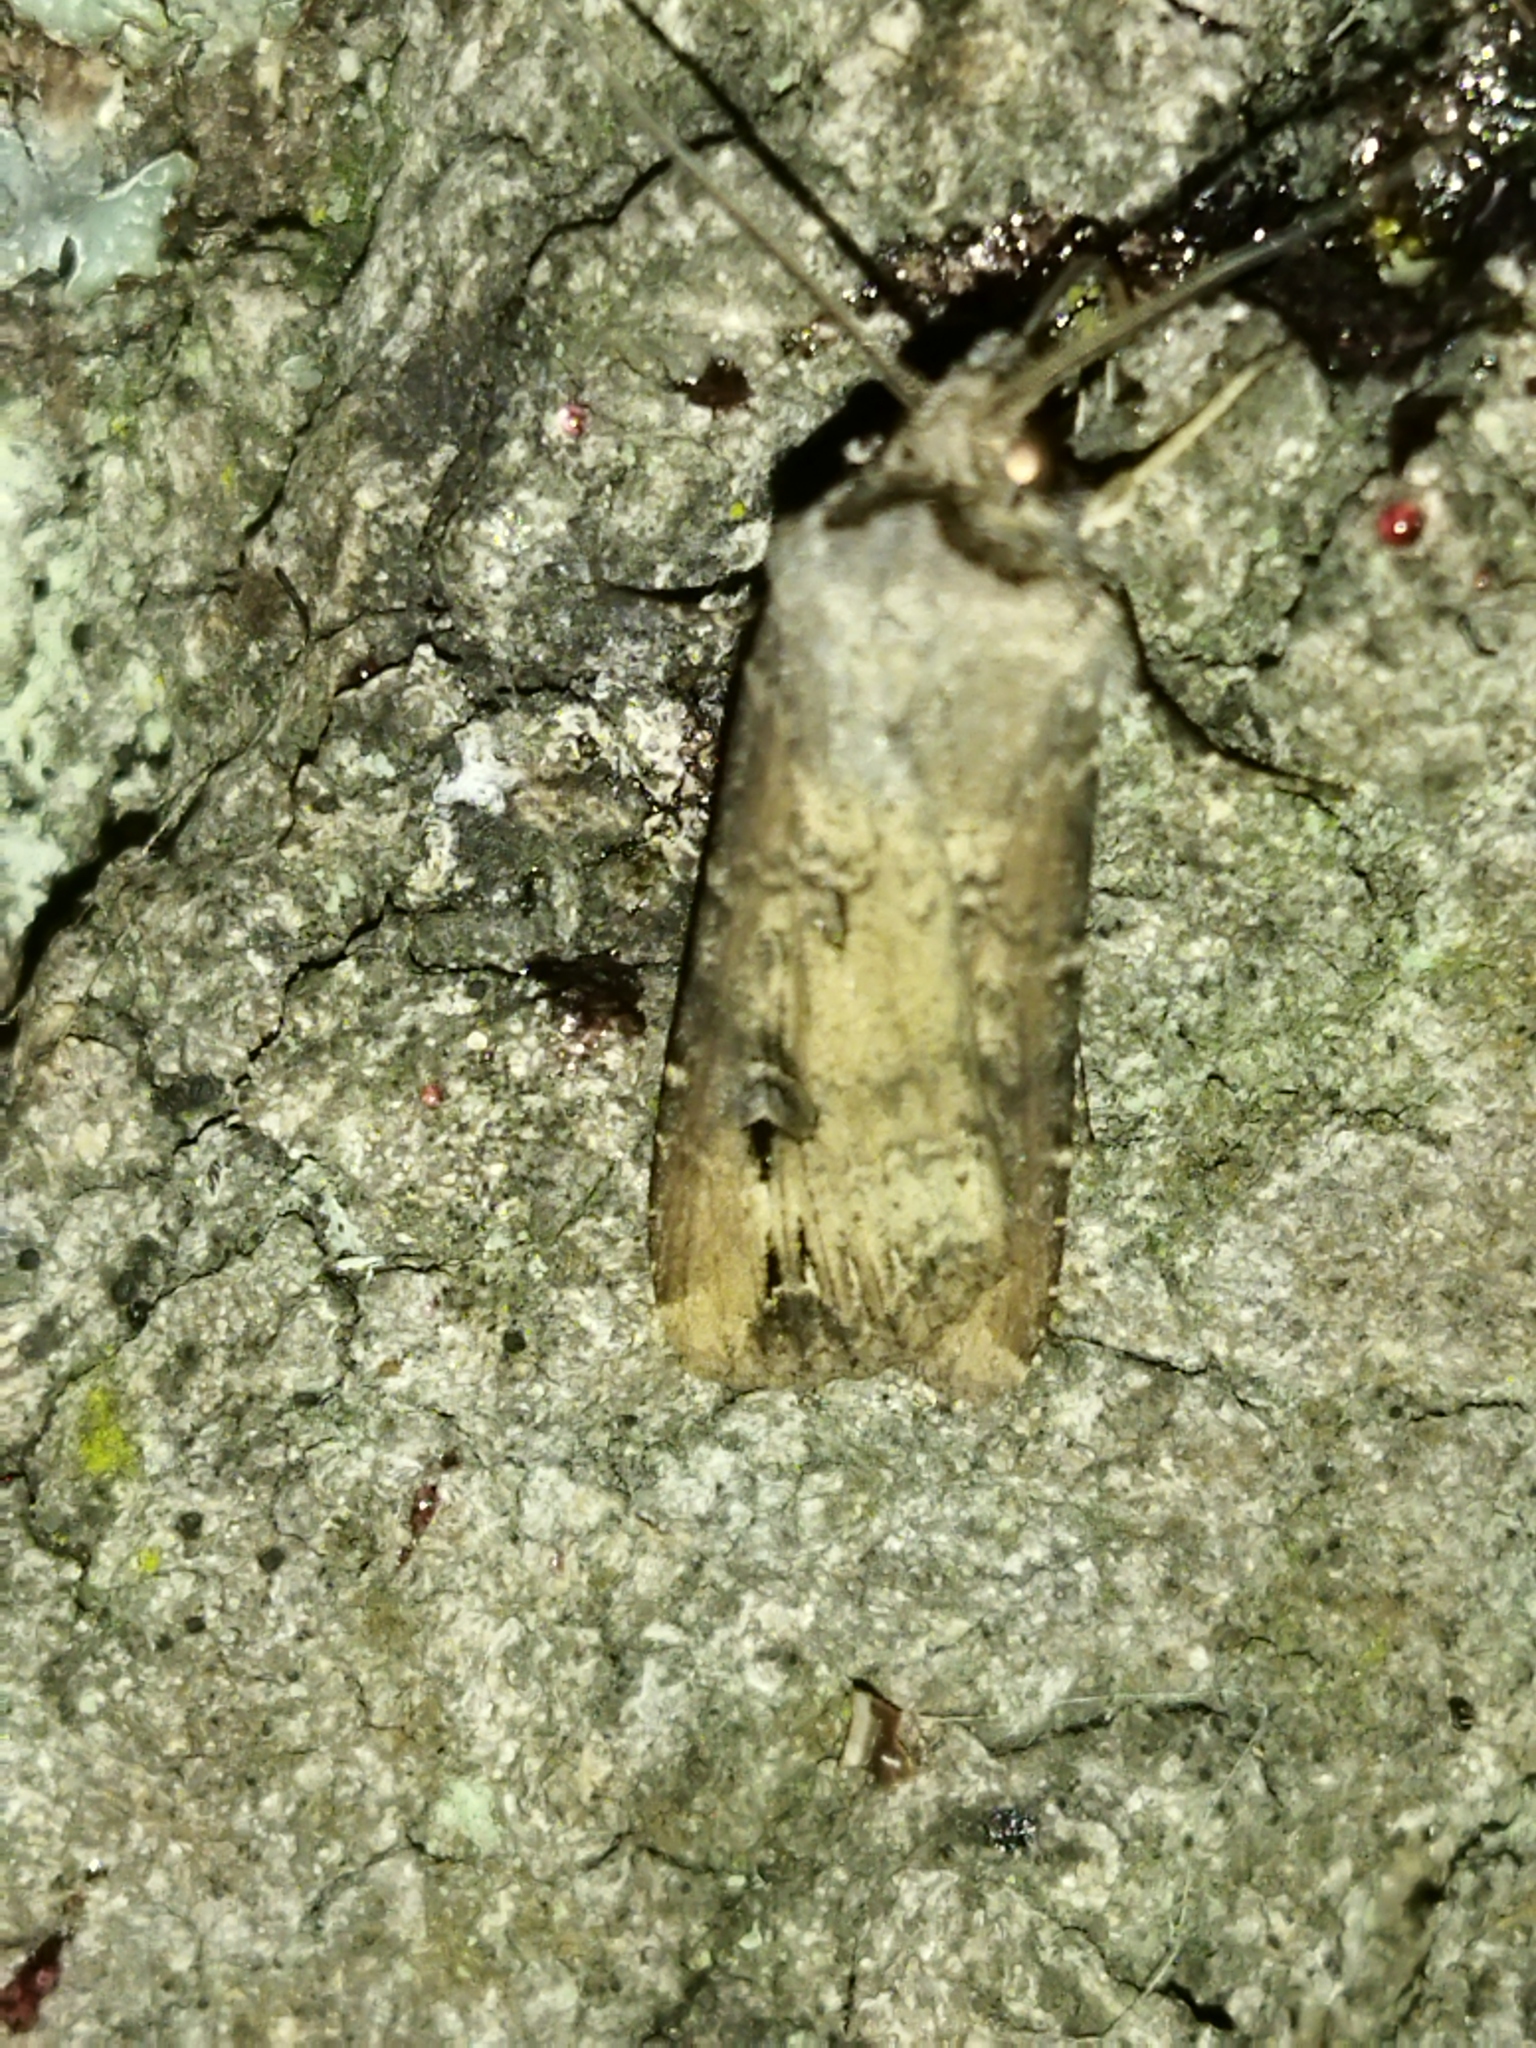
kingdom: Animalia
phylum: Arthropoda
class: Insecta
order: Lepidoptera
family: Noctuidae
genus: Agrotis
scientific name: Agrotis ipsilon
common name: Dark sword-grass
